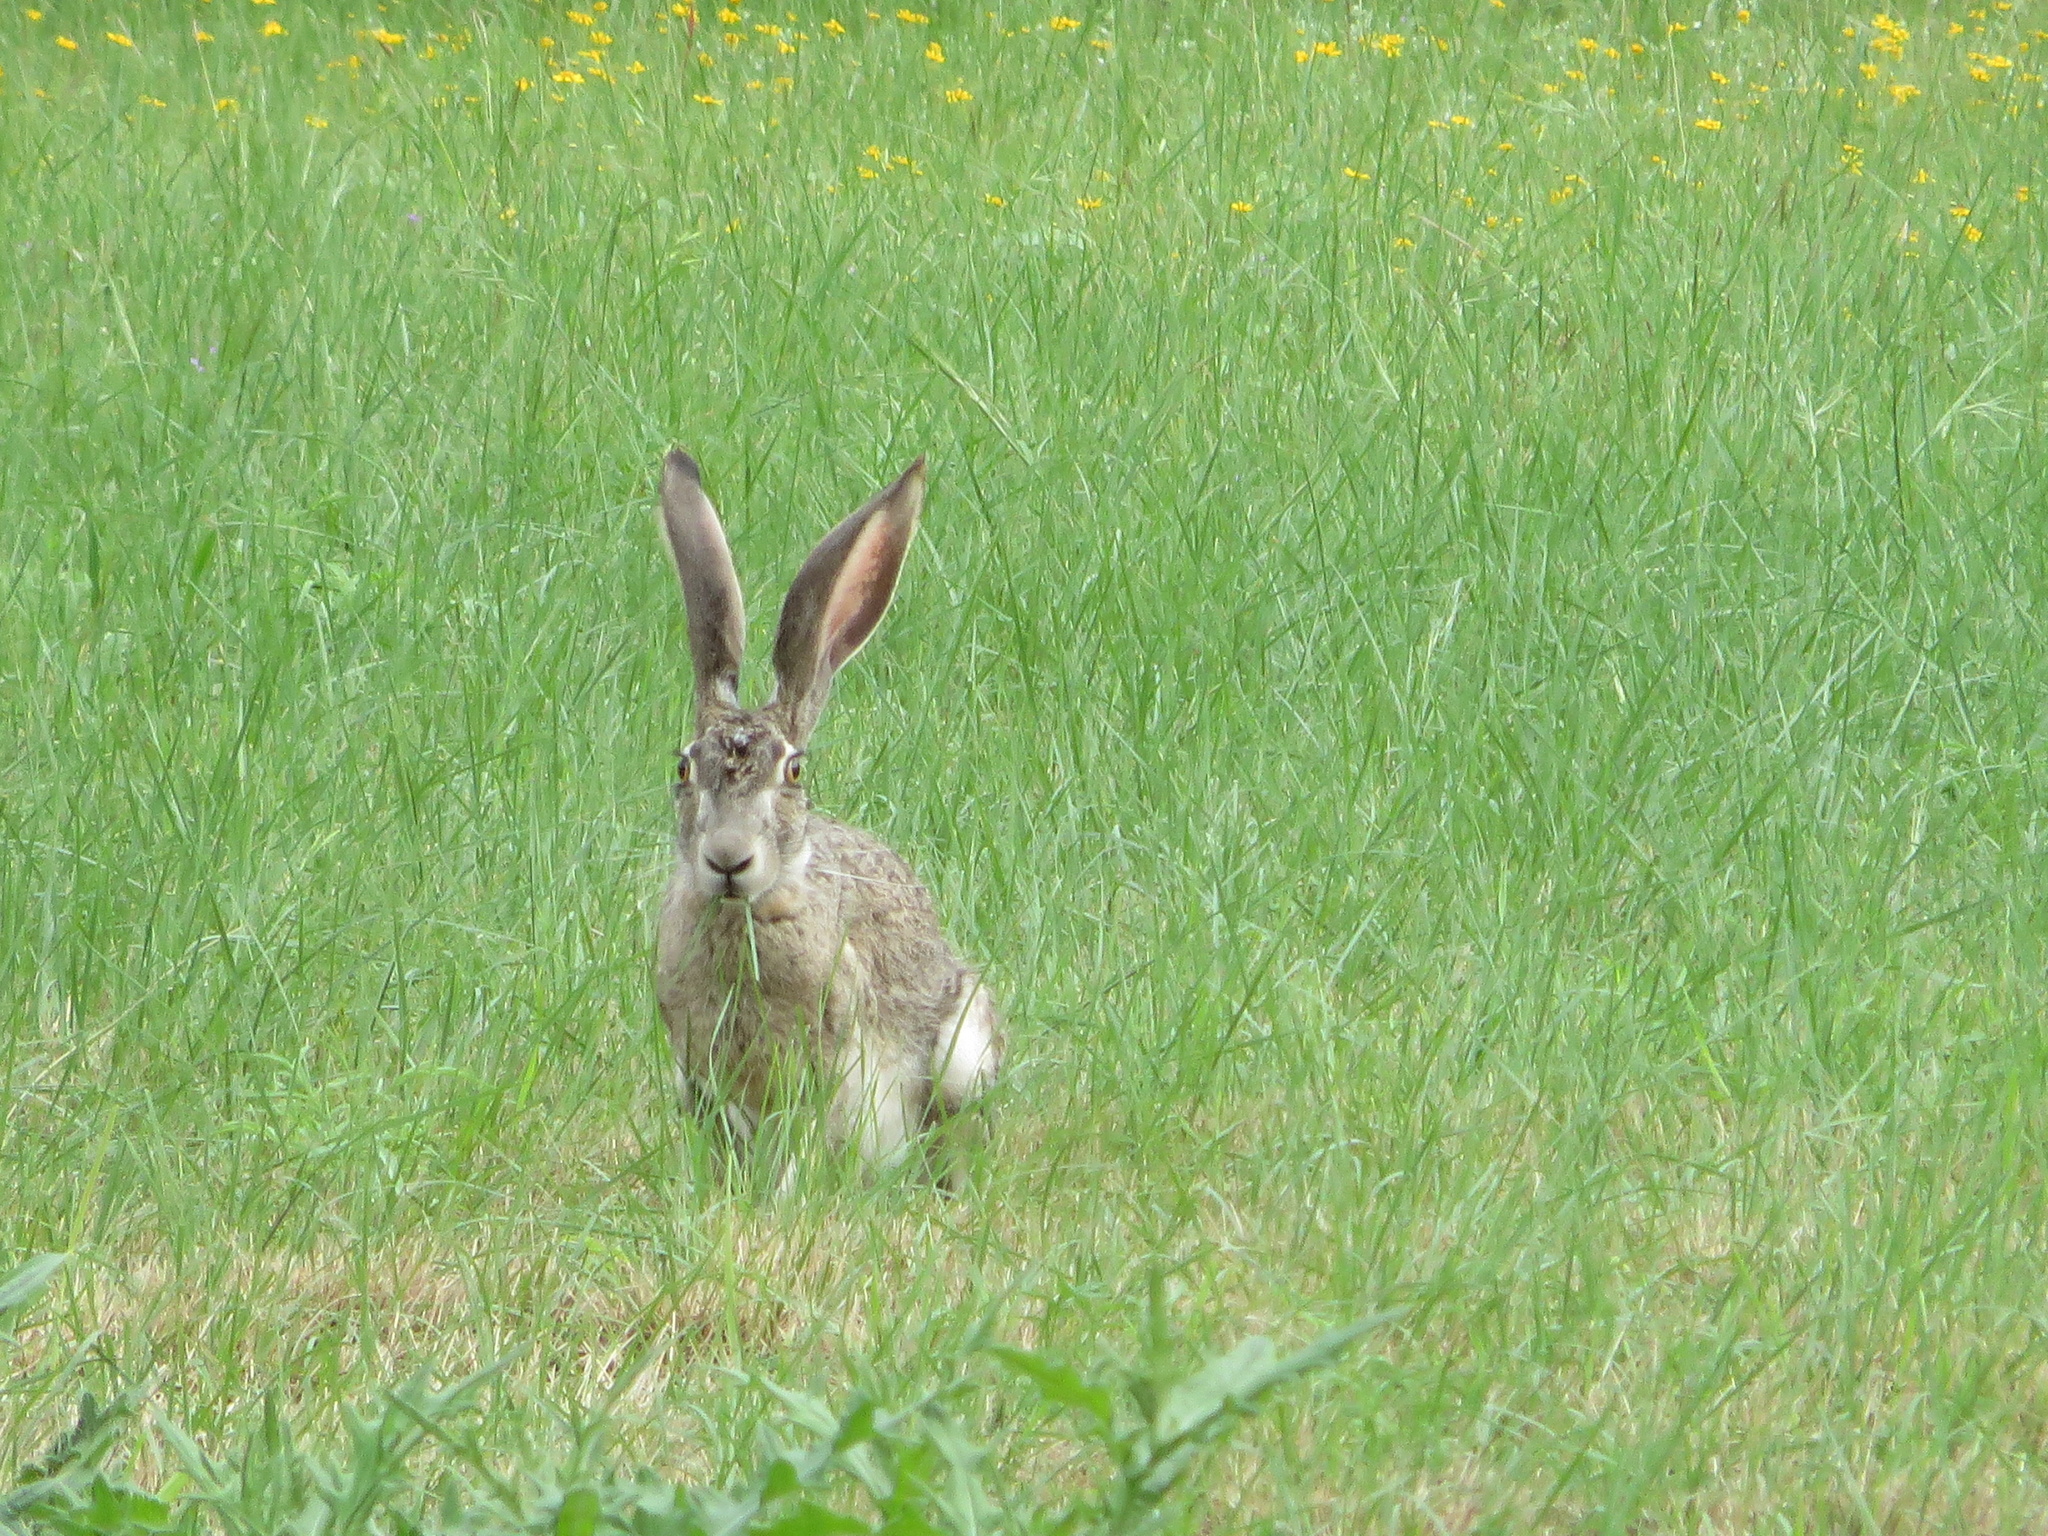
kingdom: Animalia
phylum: Chordata
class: Mammalia
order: Lagomorpha
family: Leporidae
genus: Lepus
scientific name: Lepus californicus
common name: Black-tailed jackrabbit
